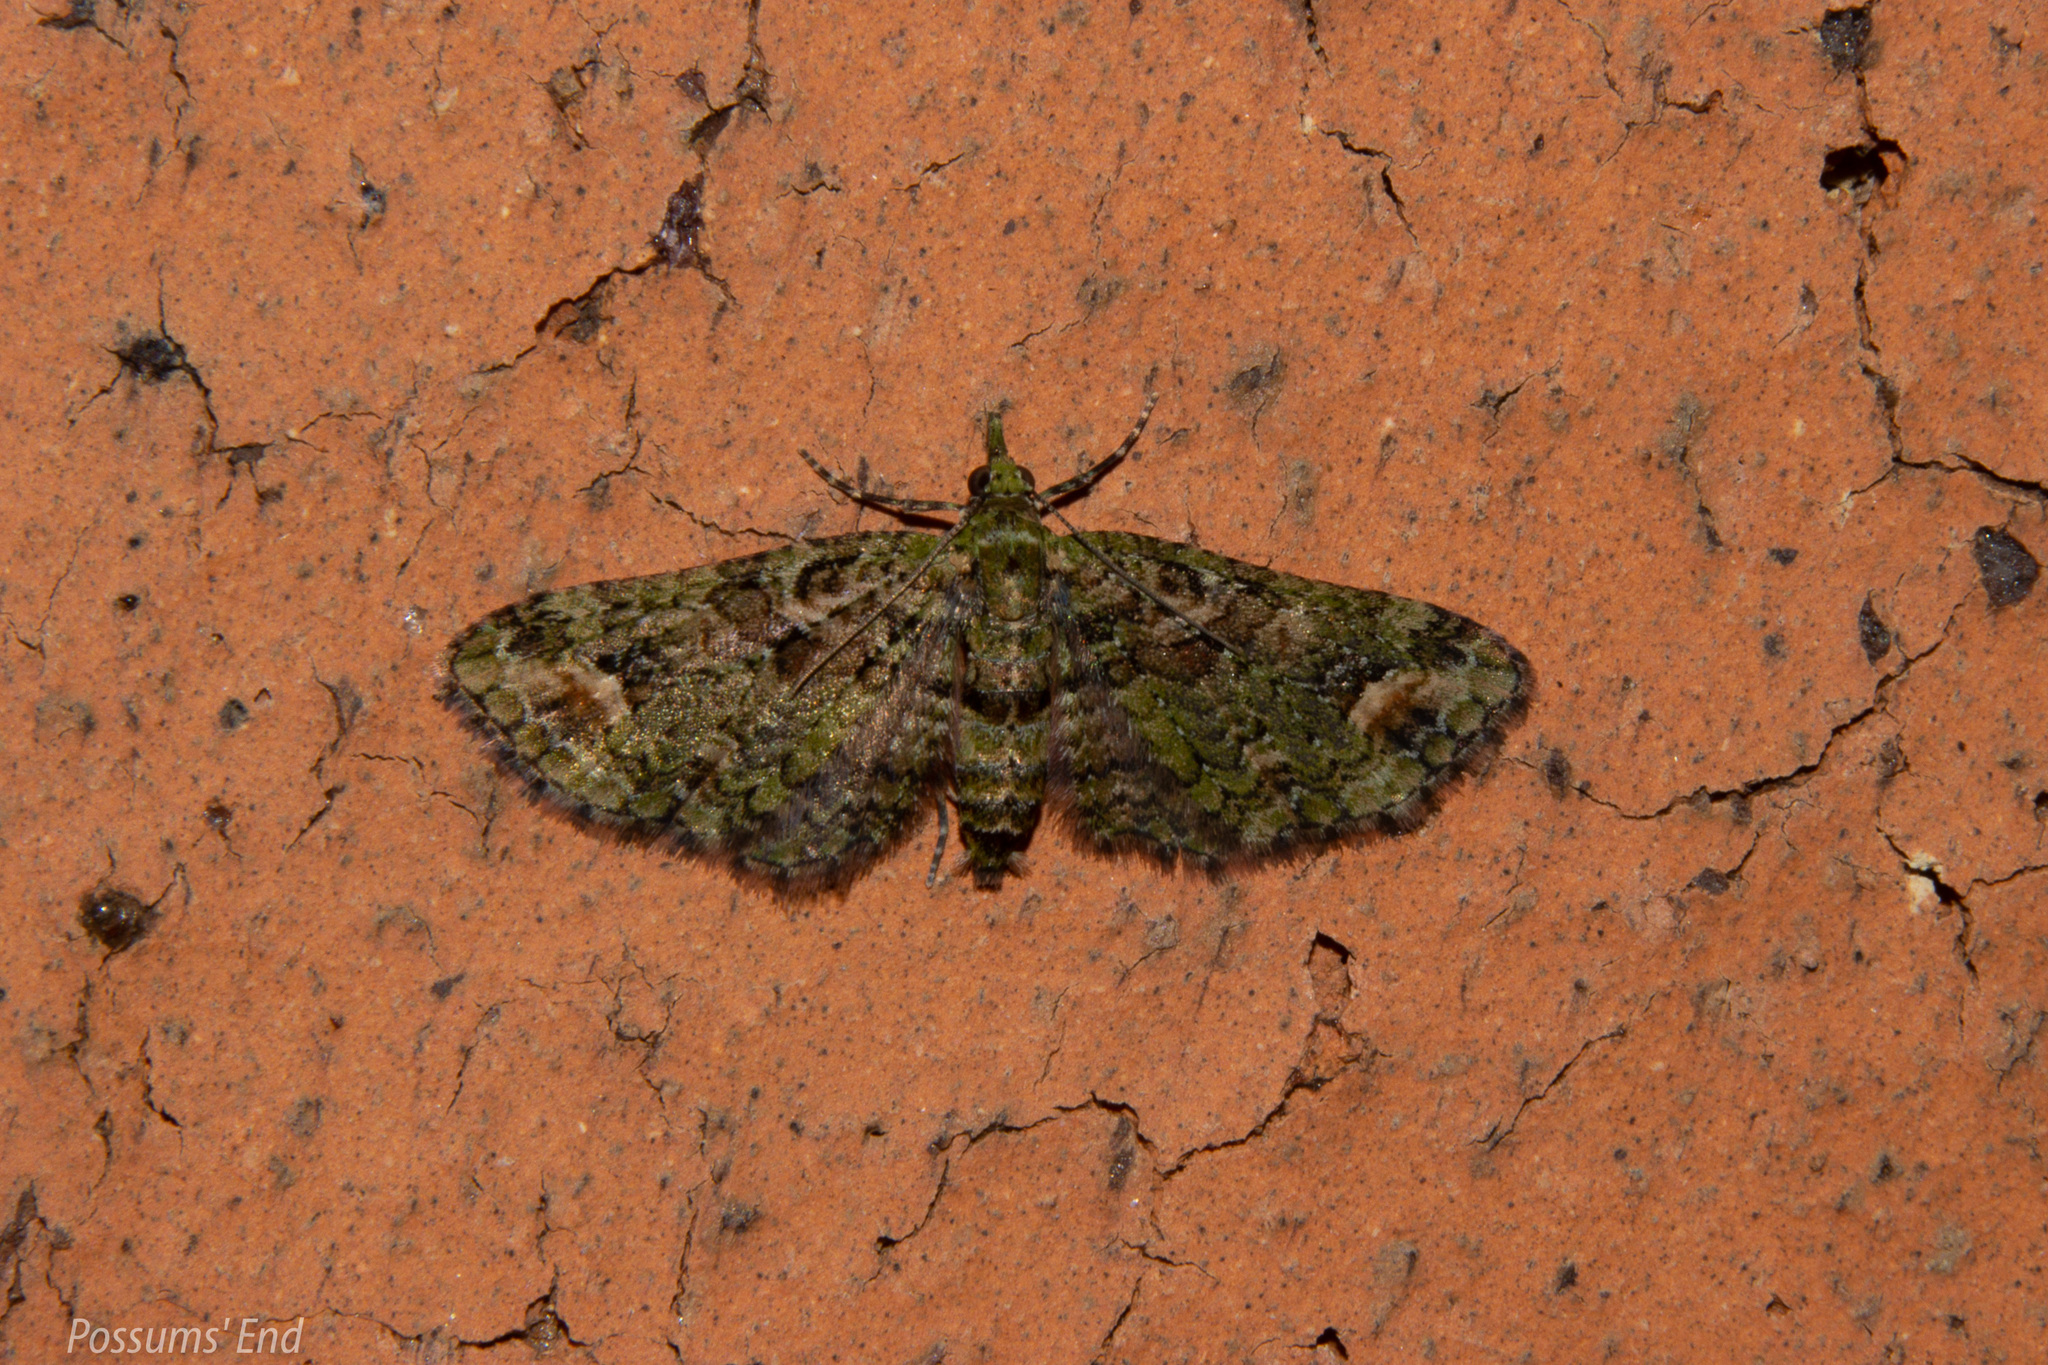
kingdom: Animalia
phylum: Arthropoda
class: Insecta
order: Lepidoptera
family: Geometridae
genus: Idaea
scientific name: Idaea mutanda
